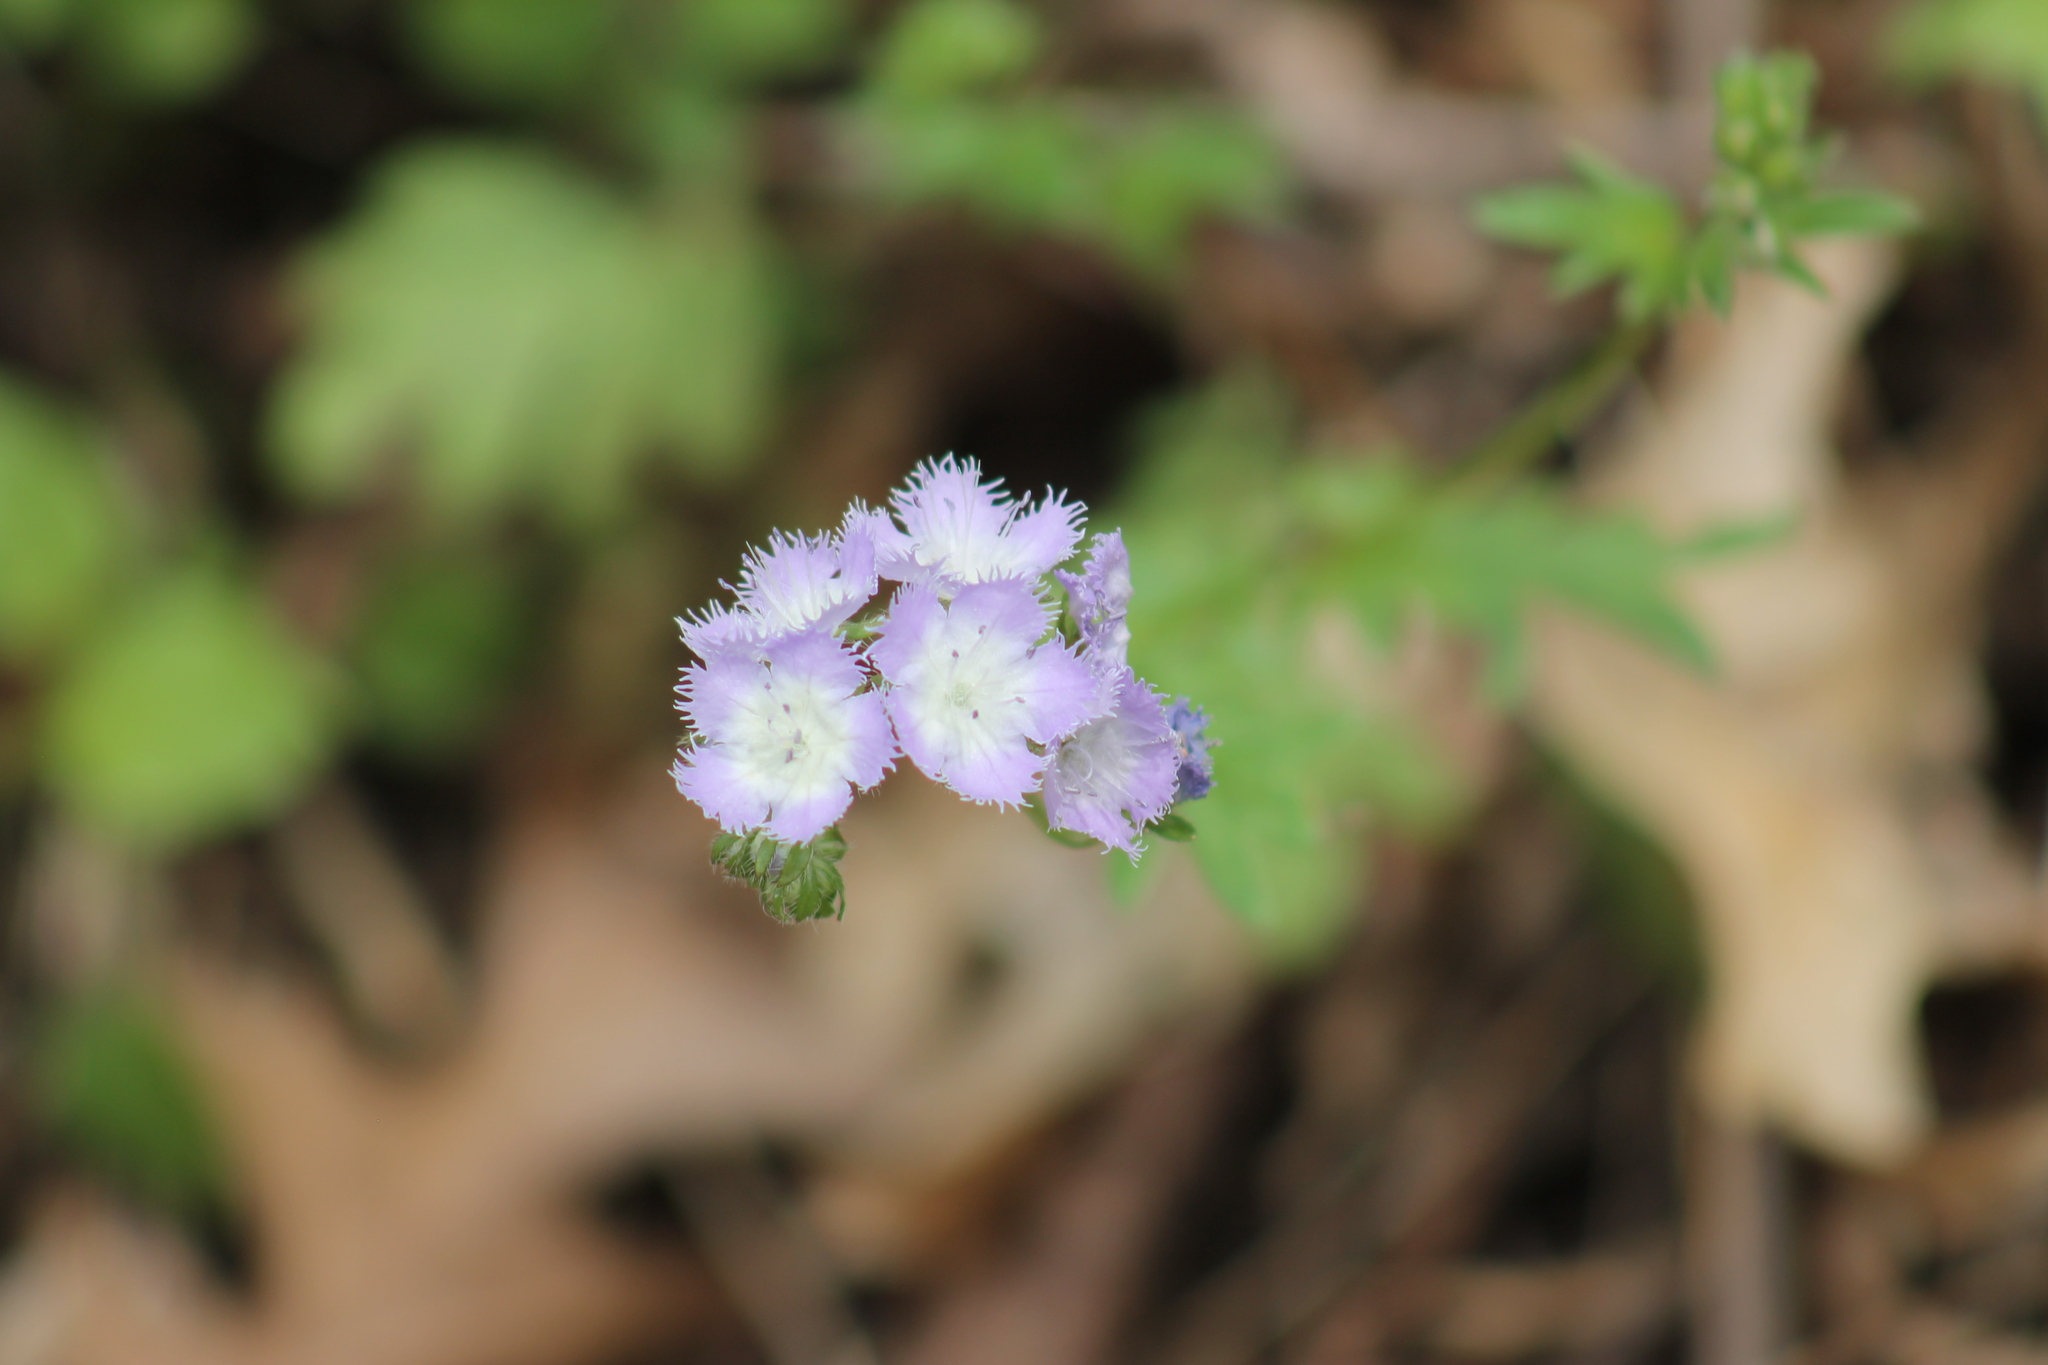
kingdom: Plantae
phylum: Tracheophyta
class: Magnoliopsida
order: Boraginales
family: Hydrophyllaceae
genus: Phacelia
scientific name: Phacelia purshii
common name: Miami-mist
